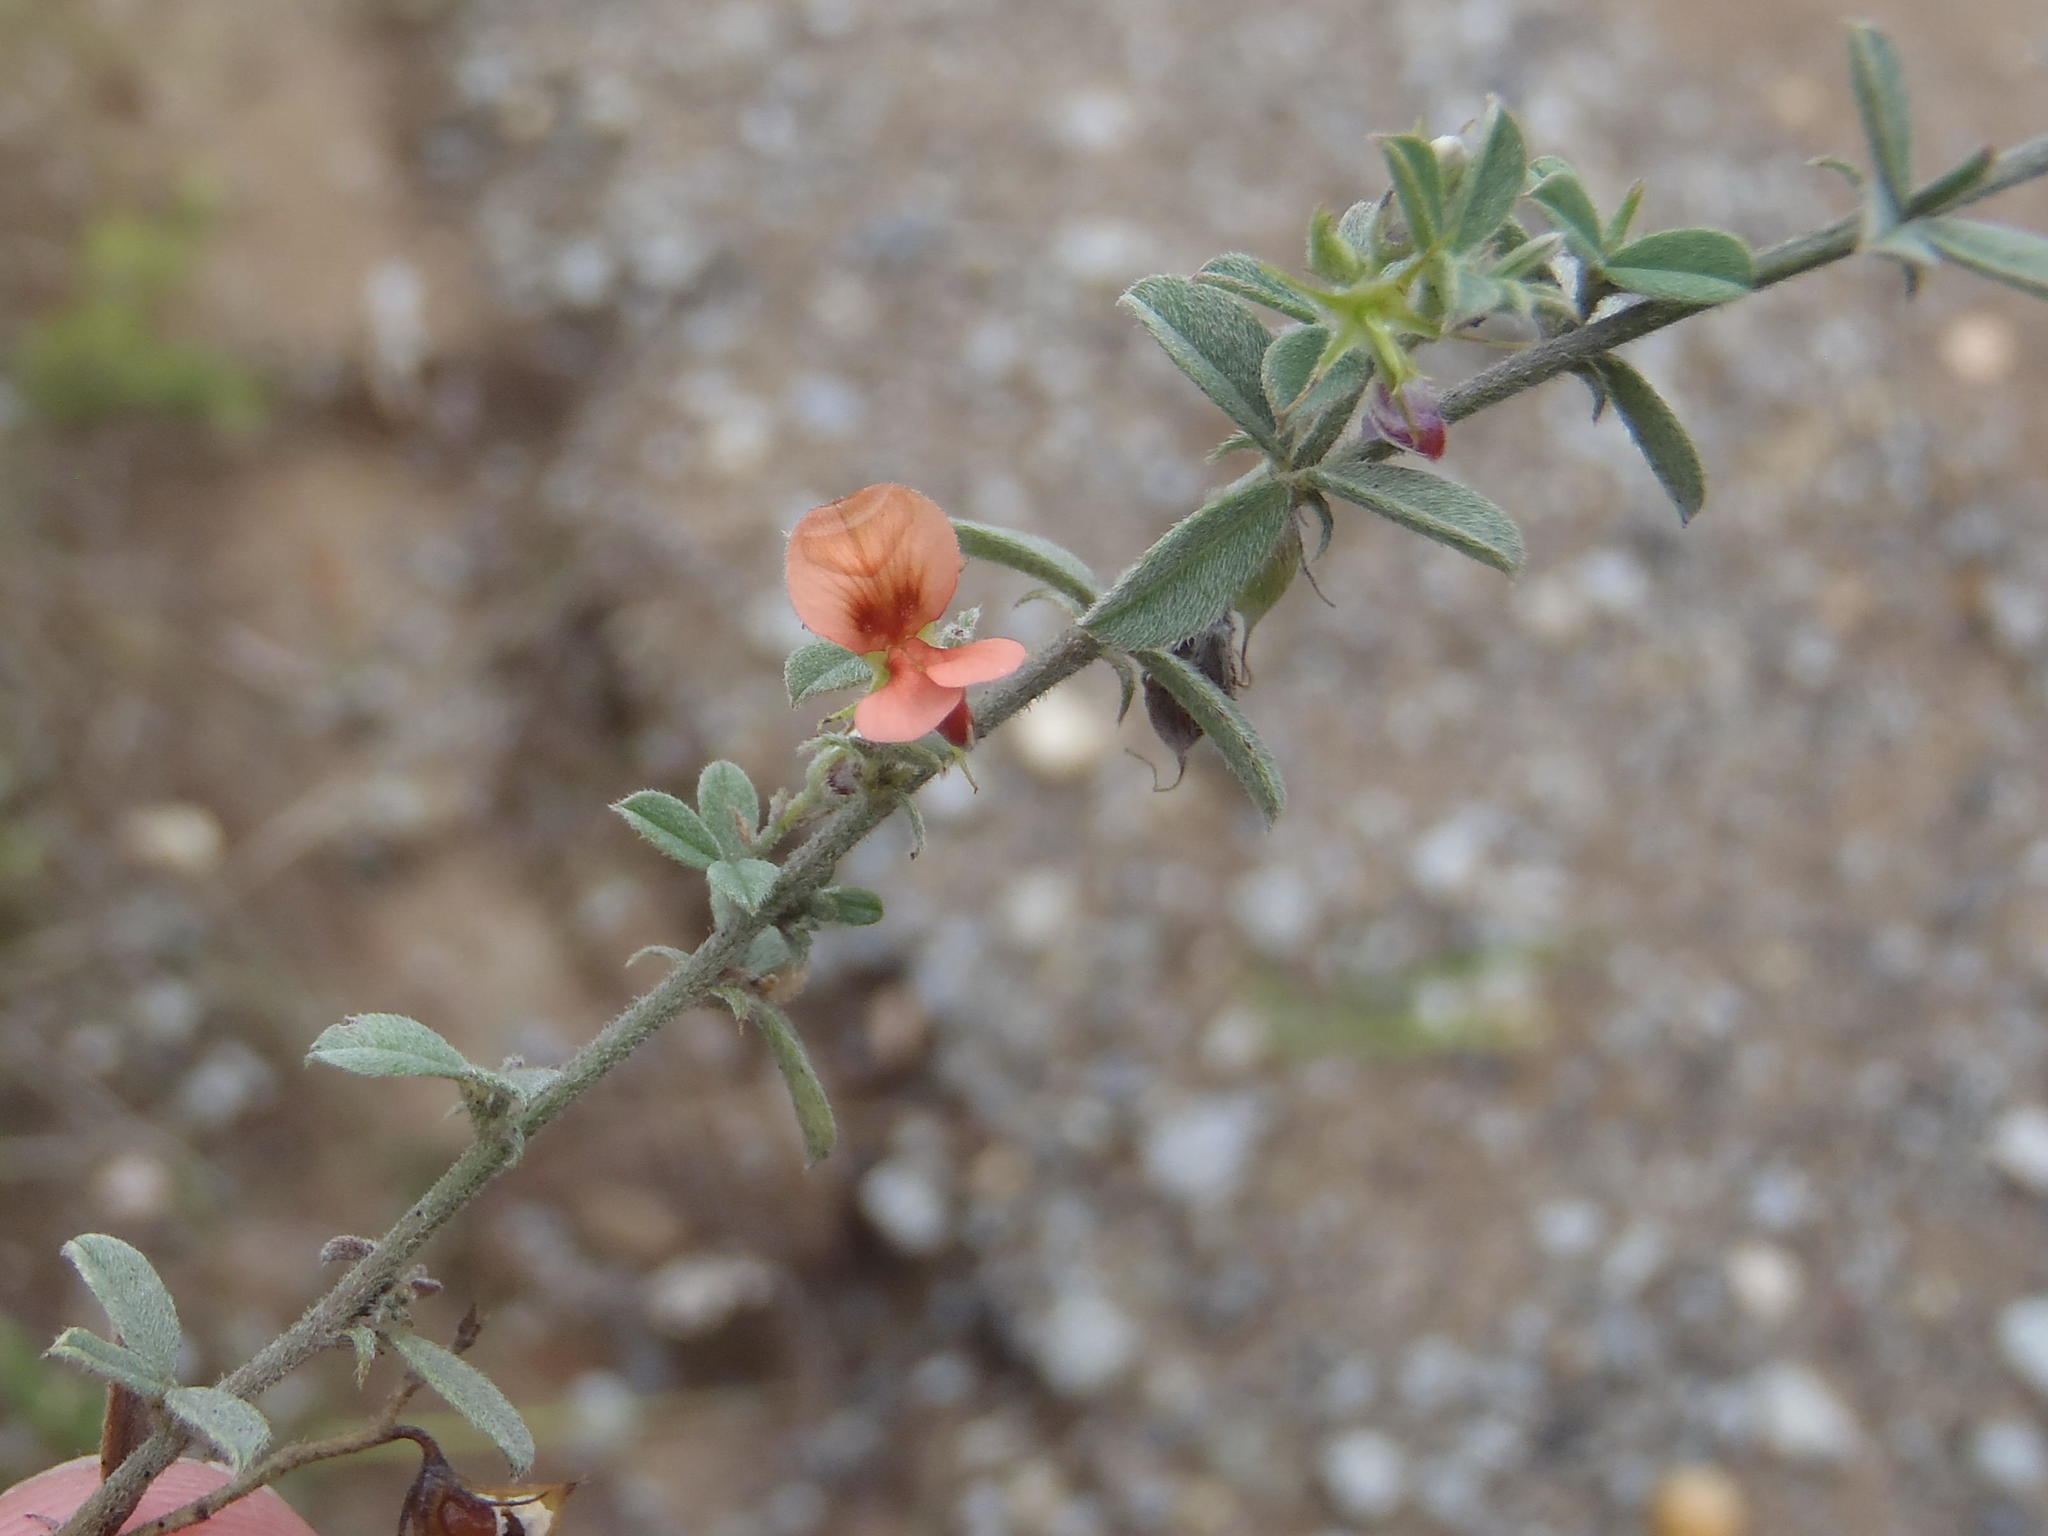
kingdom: Plantae
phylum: Tracheophyta
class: Magnoliopsida
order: Fabales
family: Fabaceae
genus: Indigofera
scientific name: Indigofera priorii
